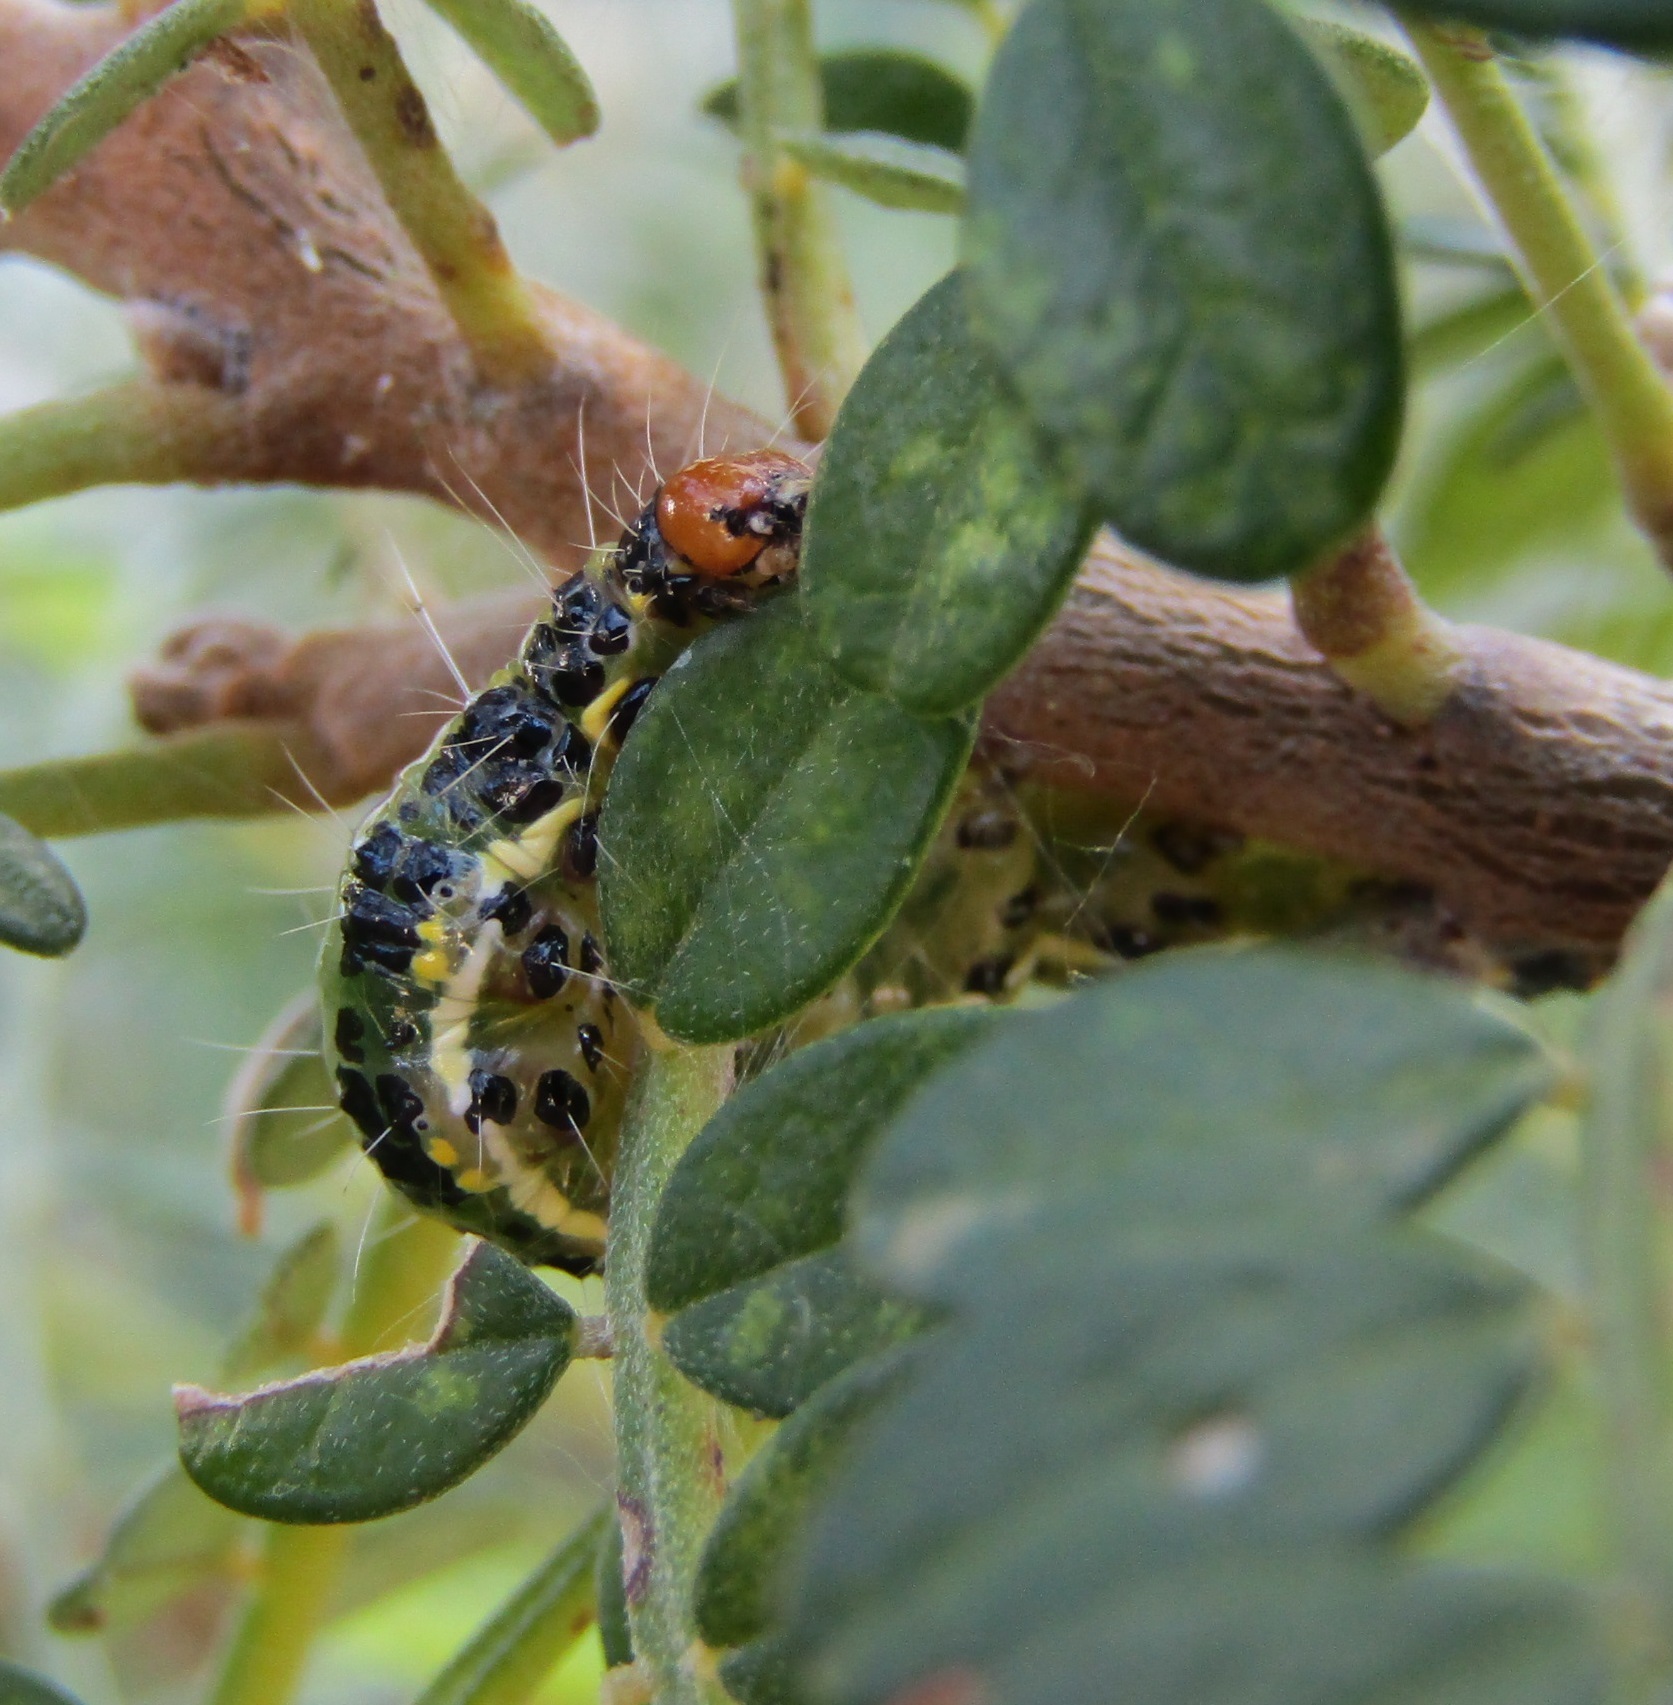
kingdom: Animalia
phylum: Arthropoda
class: Insecta
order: Lepidoptera
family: Crambidae
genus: Uresiphita
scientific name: Uresiphita
